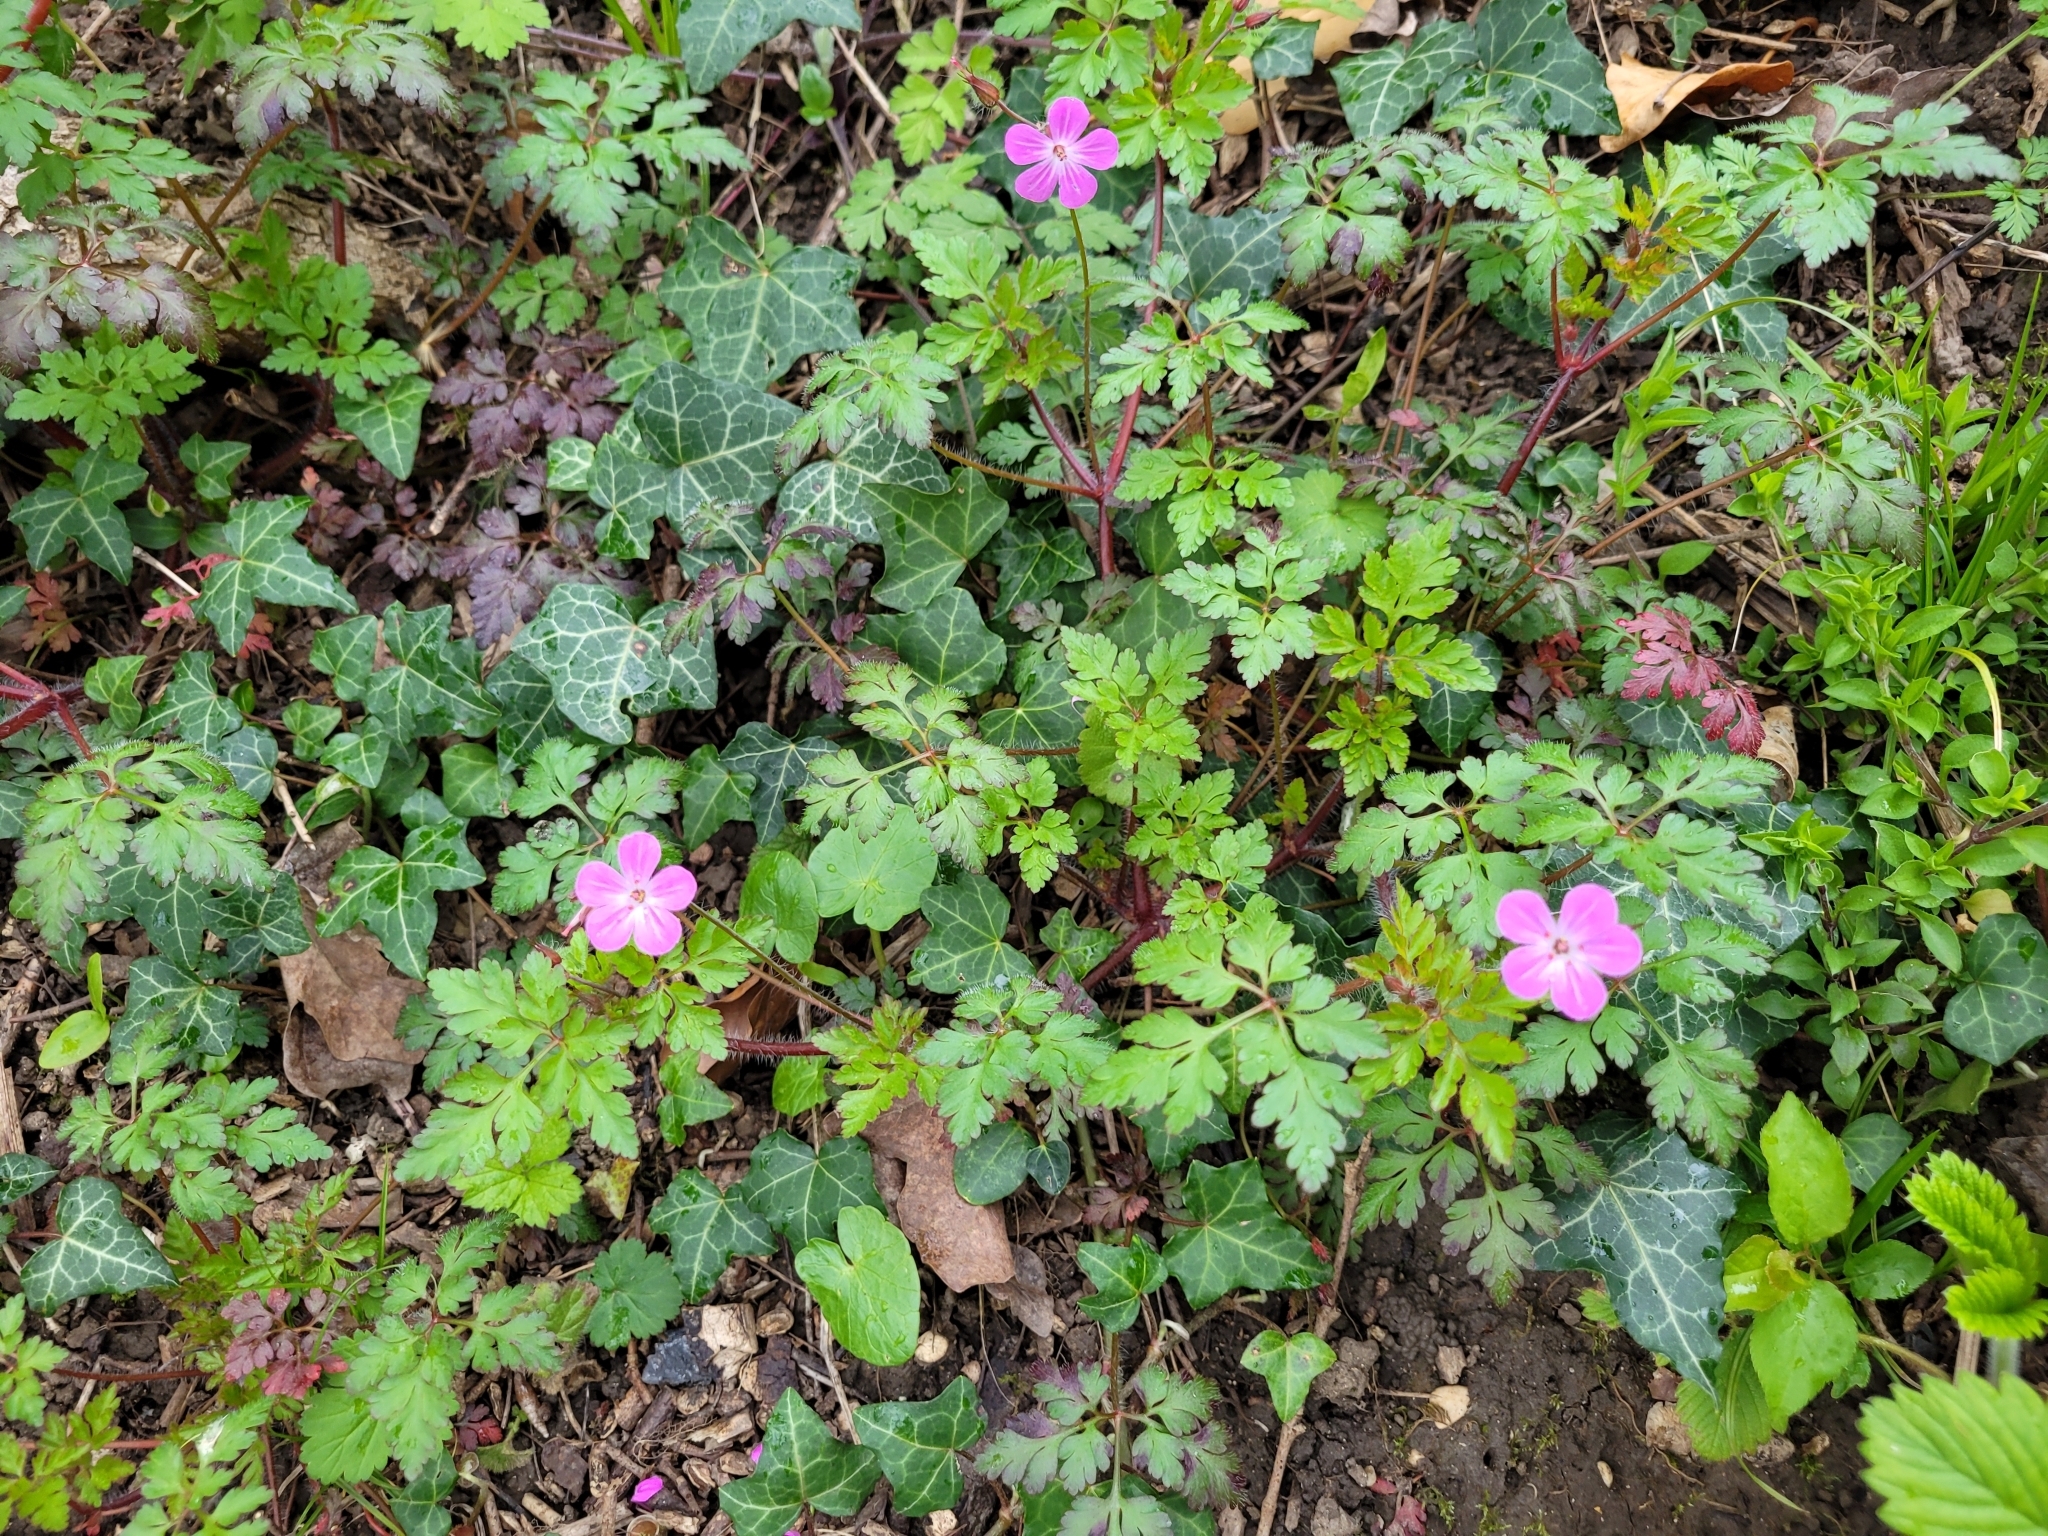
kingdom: Plantae
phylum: Tracheophyta
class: Magnoliopsida
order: Geraniales
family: Geraniaceae
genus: Geranium
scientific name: Geranium robertianum
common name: Herb-robert
